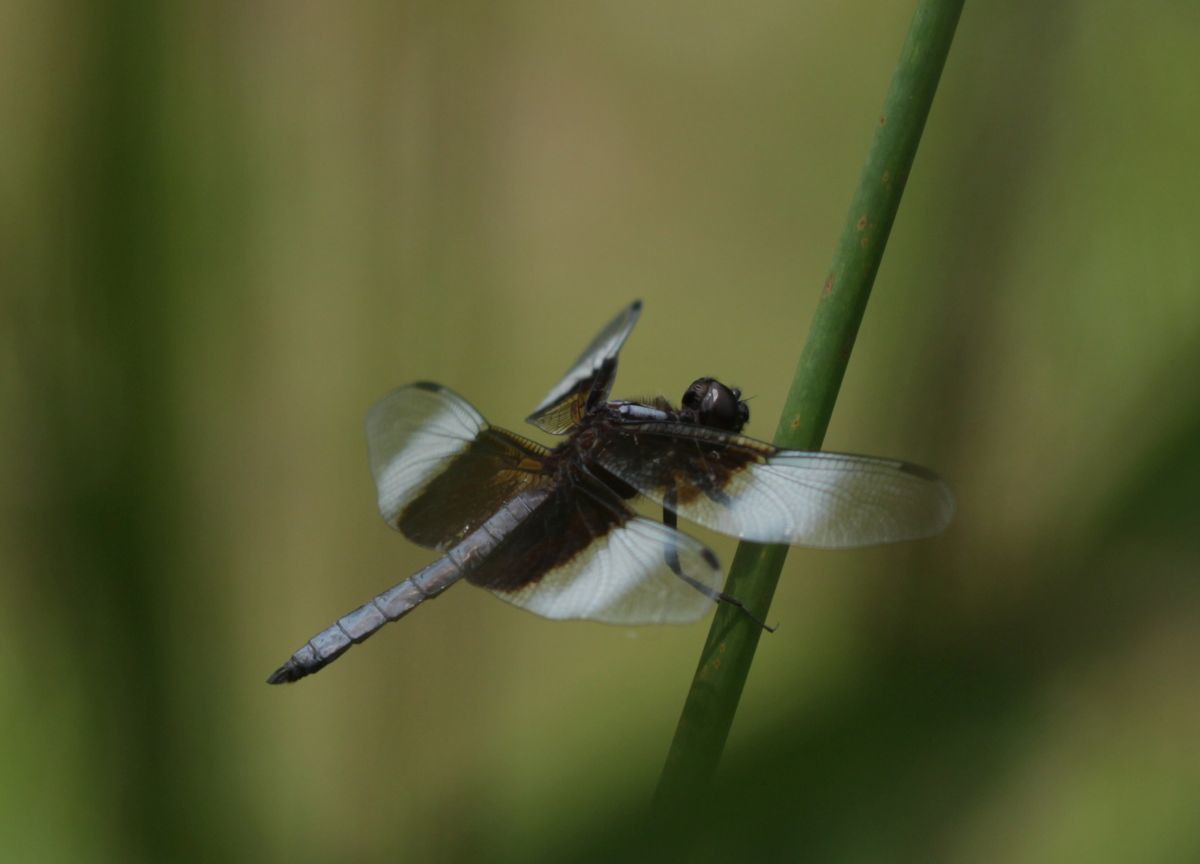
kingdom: Animalia
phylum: Arthropoda
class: Insecta
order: Odonata
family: Libellulidae
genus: Libellula
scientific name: Libellula luctuosa
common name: Widow skimmer
